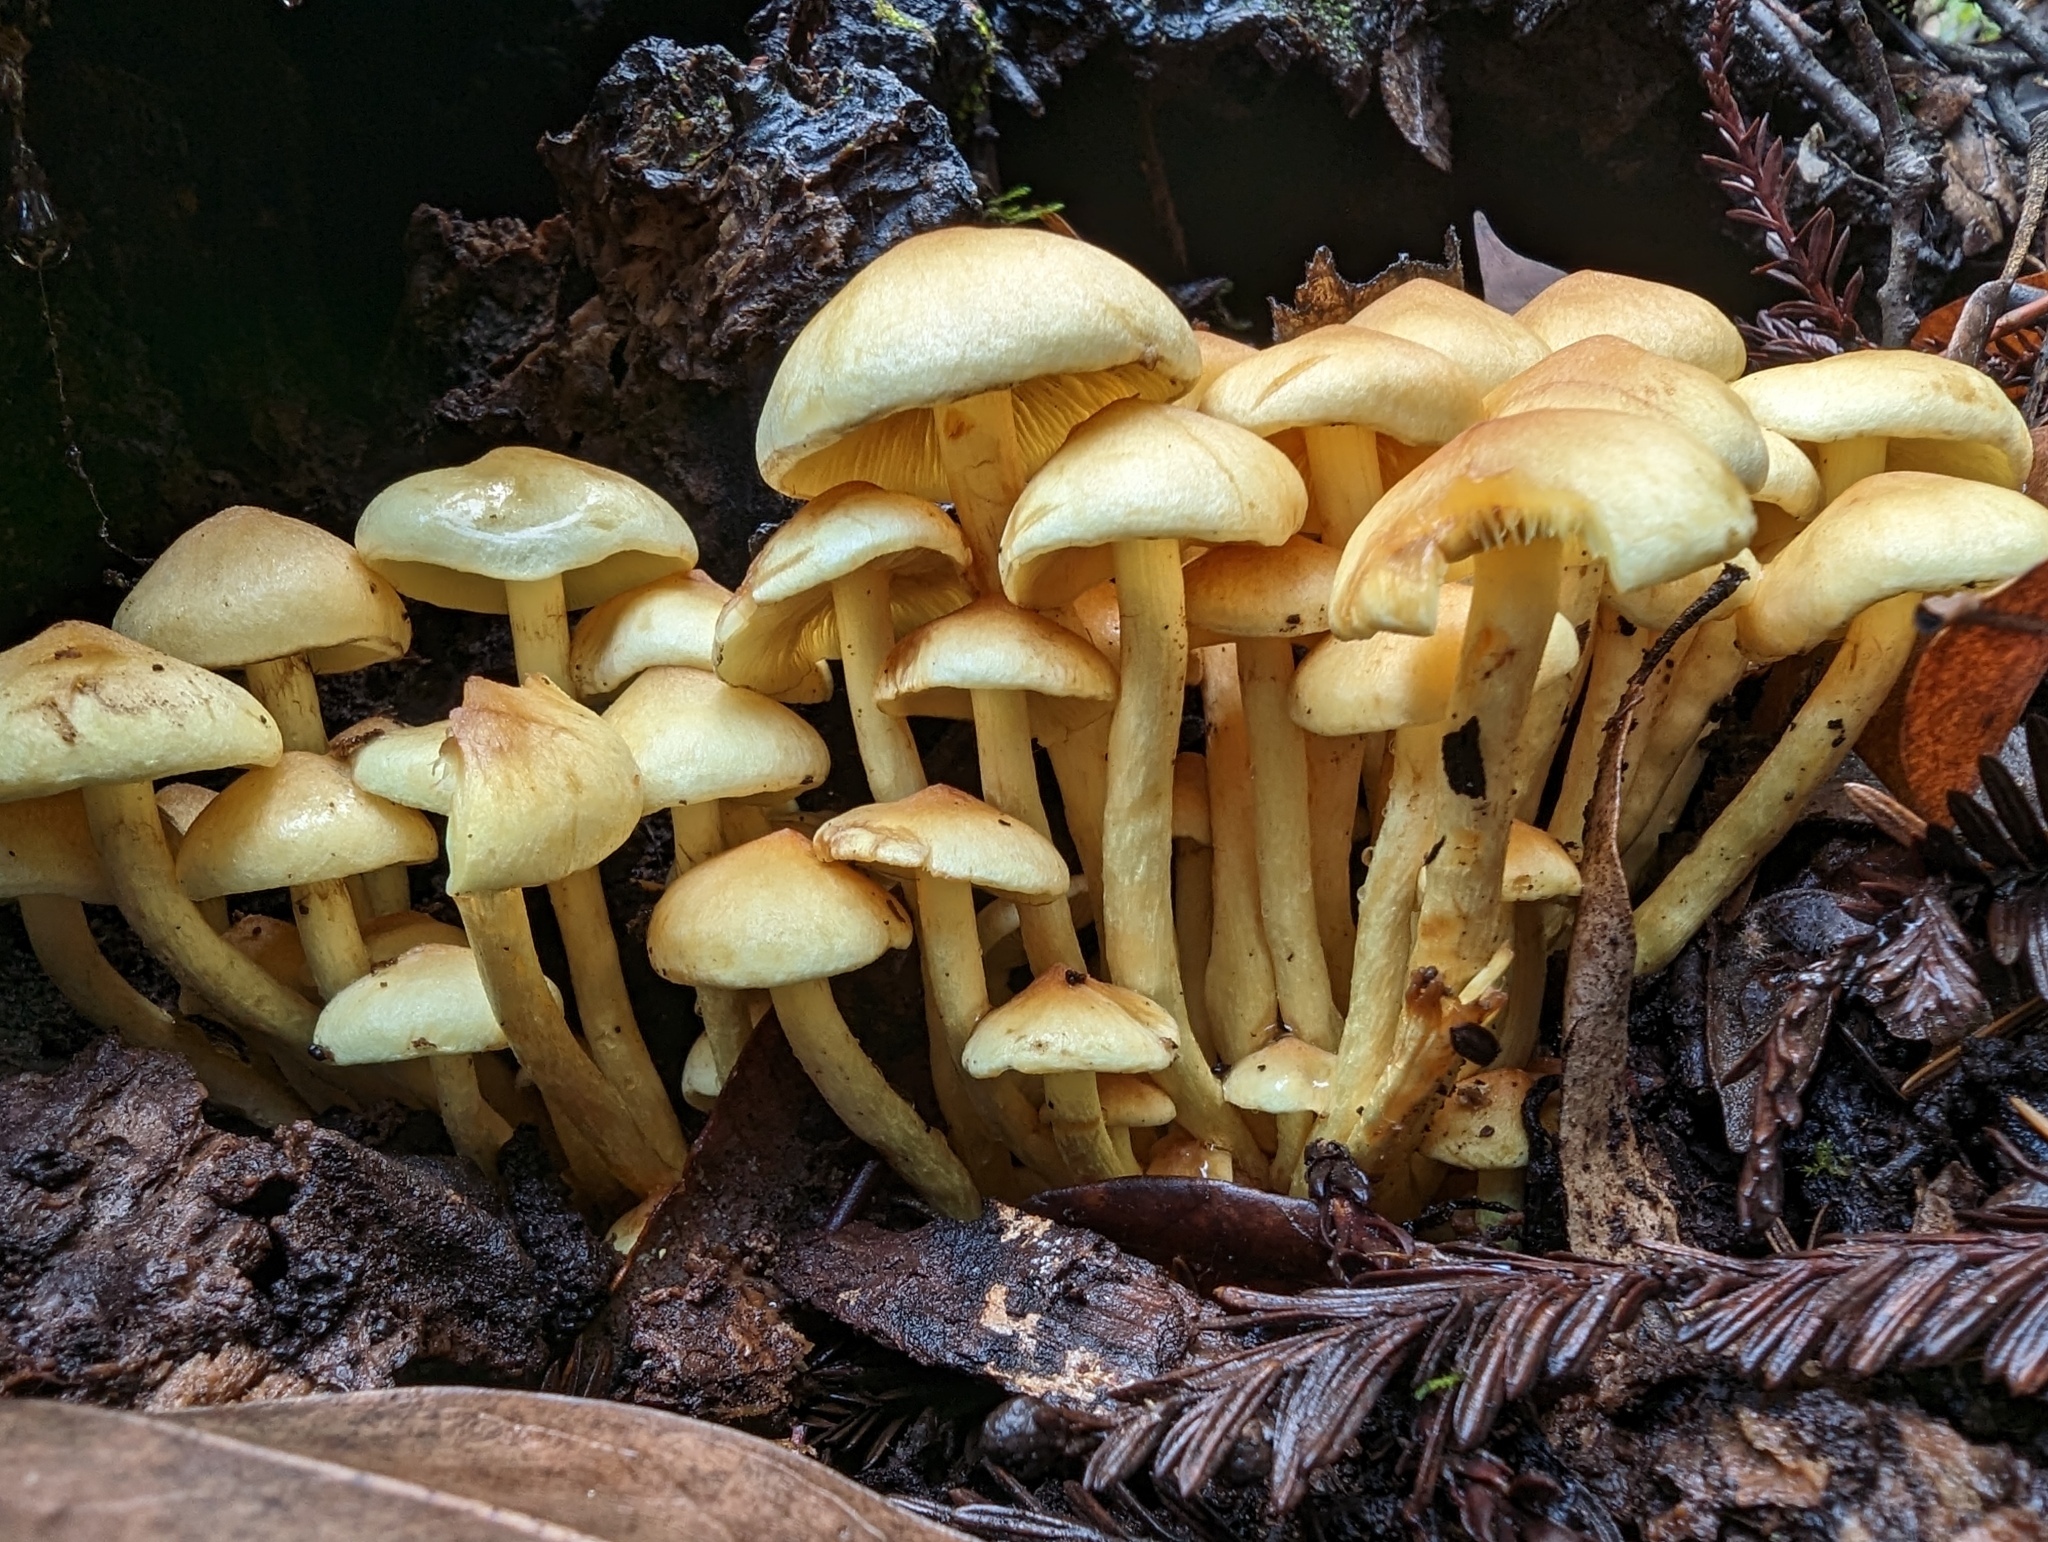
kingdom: Fungi
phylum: Basidiomycota
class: Agaricomycetes
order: Agaricales
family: Strophariaceae
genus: Hypholoma
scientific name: Hypholoma fasciculare
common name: Sulphur tuft
